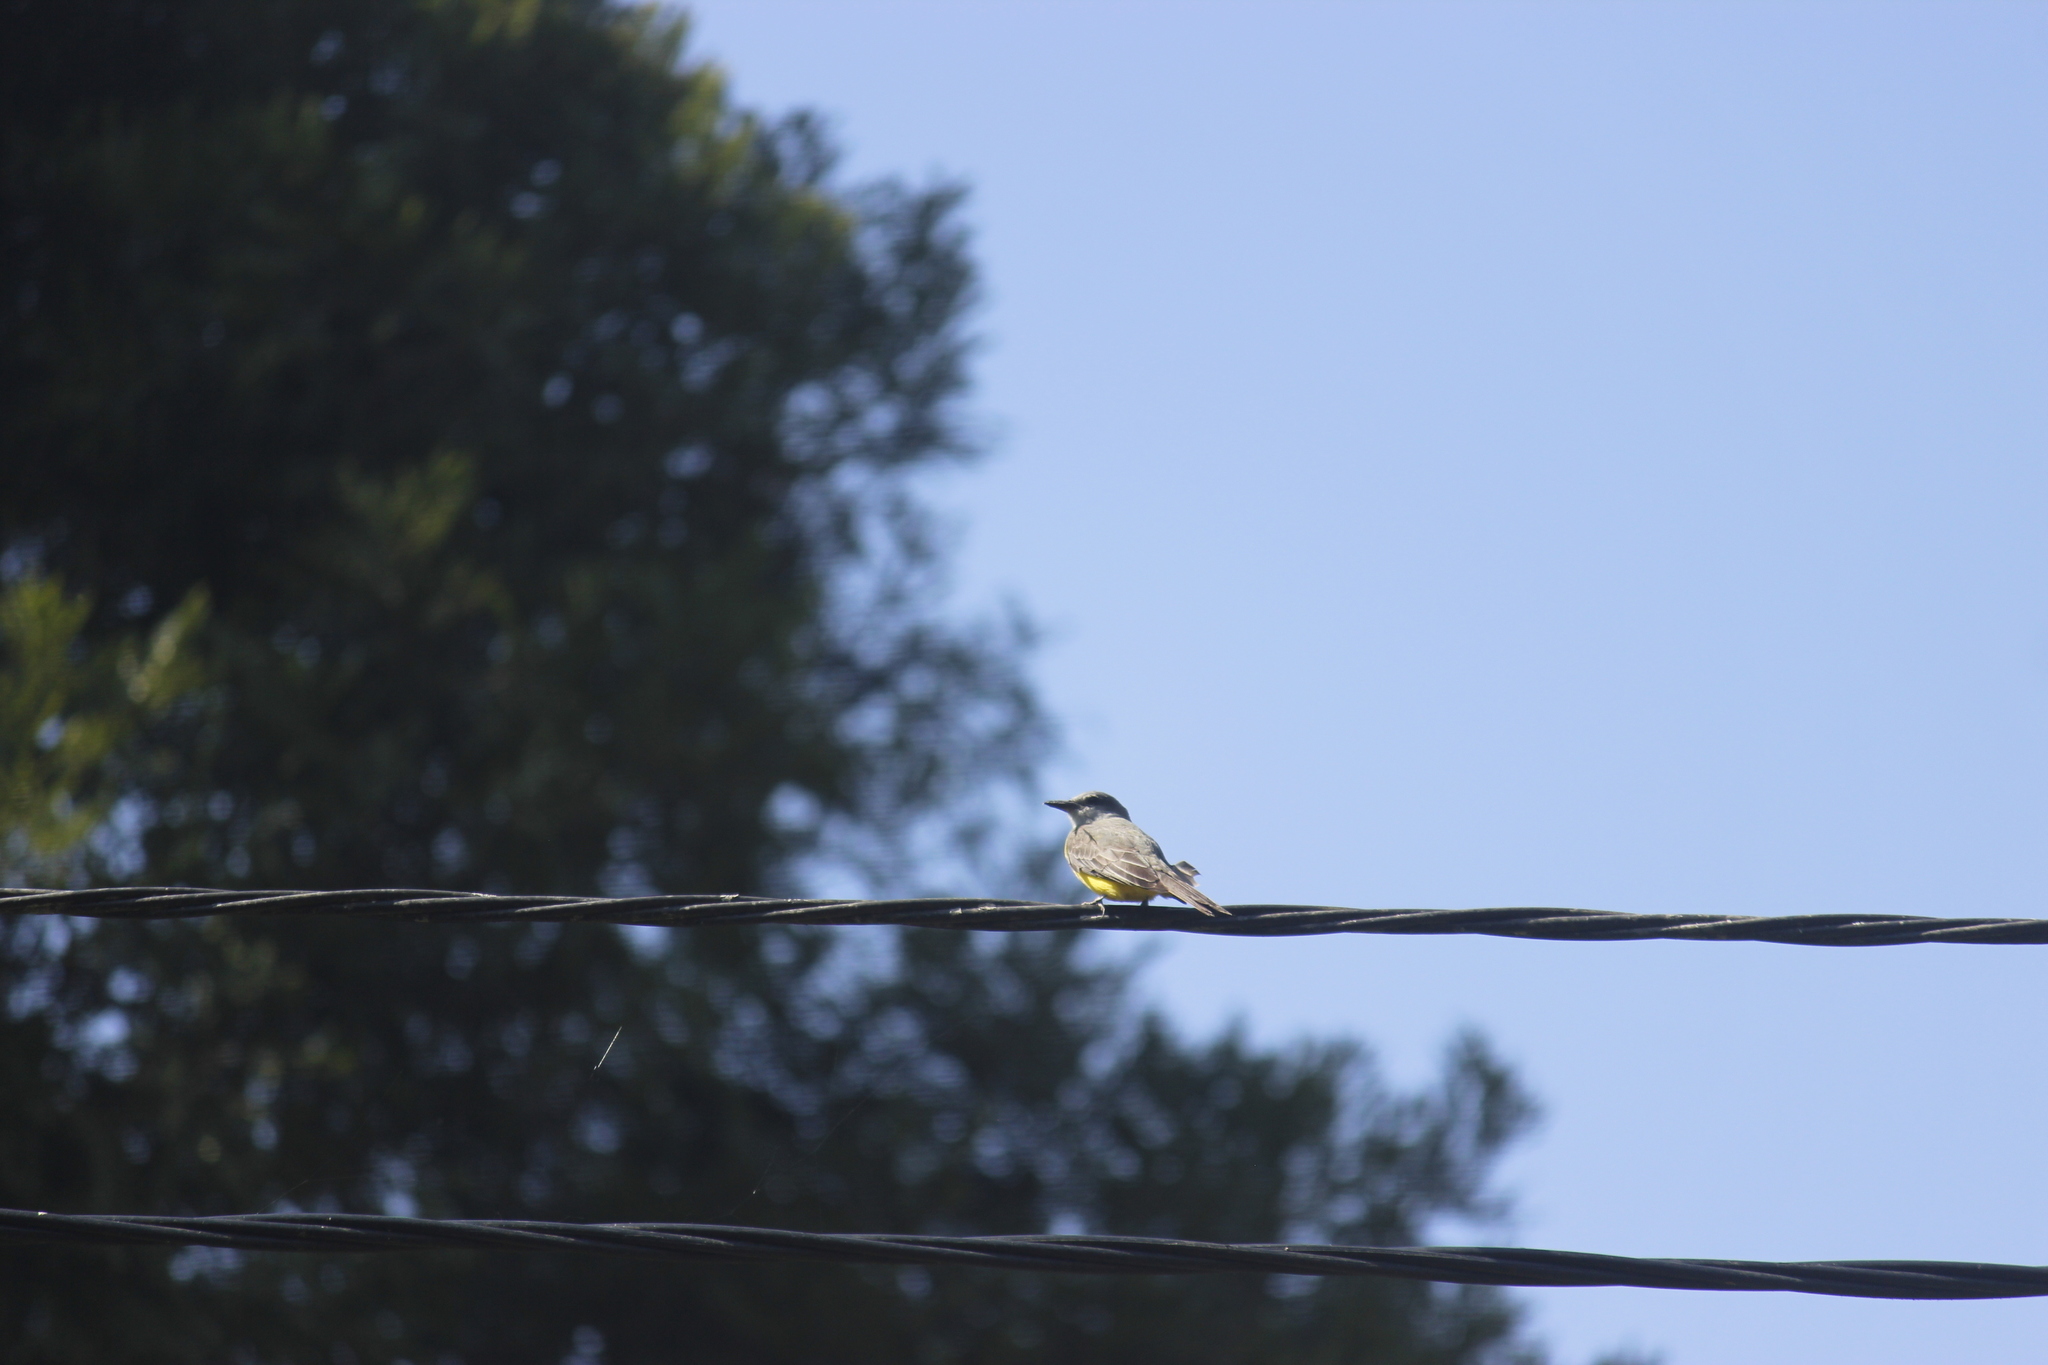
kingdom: Animalia
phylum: Chordata
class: Aves
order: Passeriformes
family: Tyrannidae
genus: Tyrannus
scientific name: Tyrannus melancholicus
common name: Tropical kingbird
